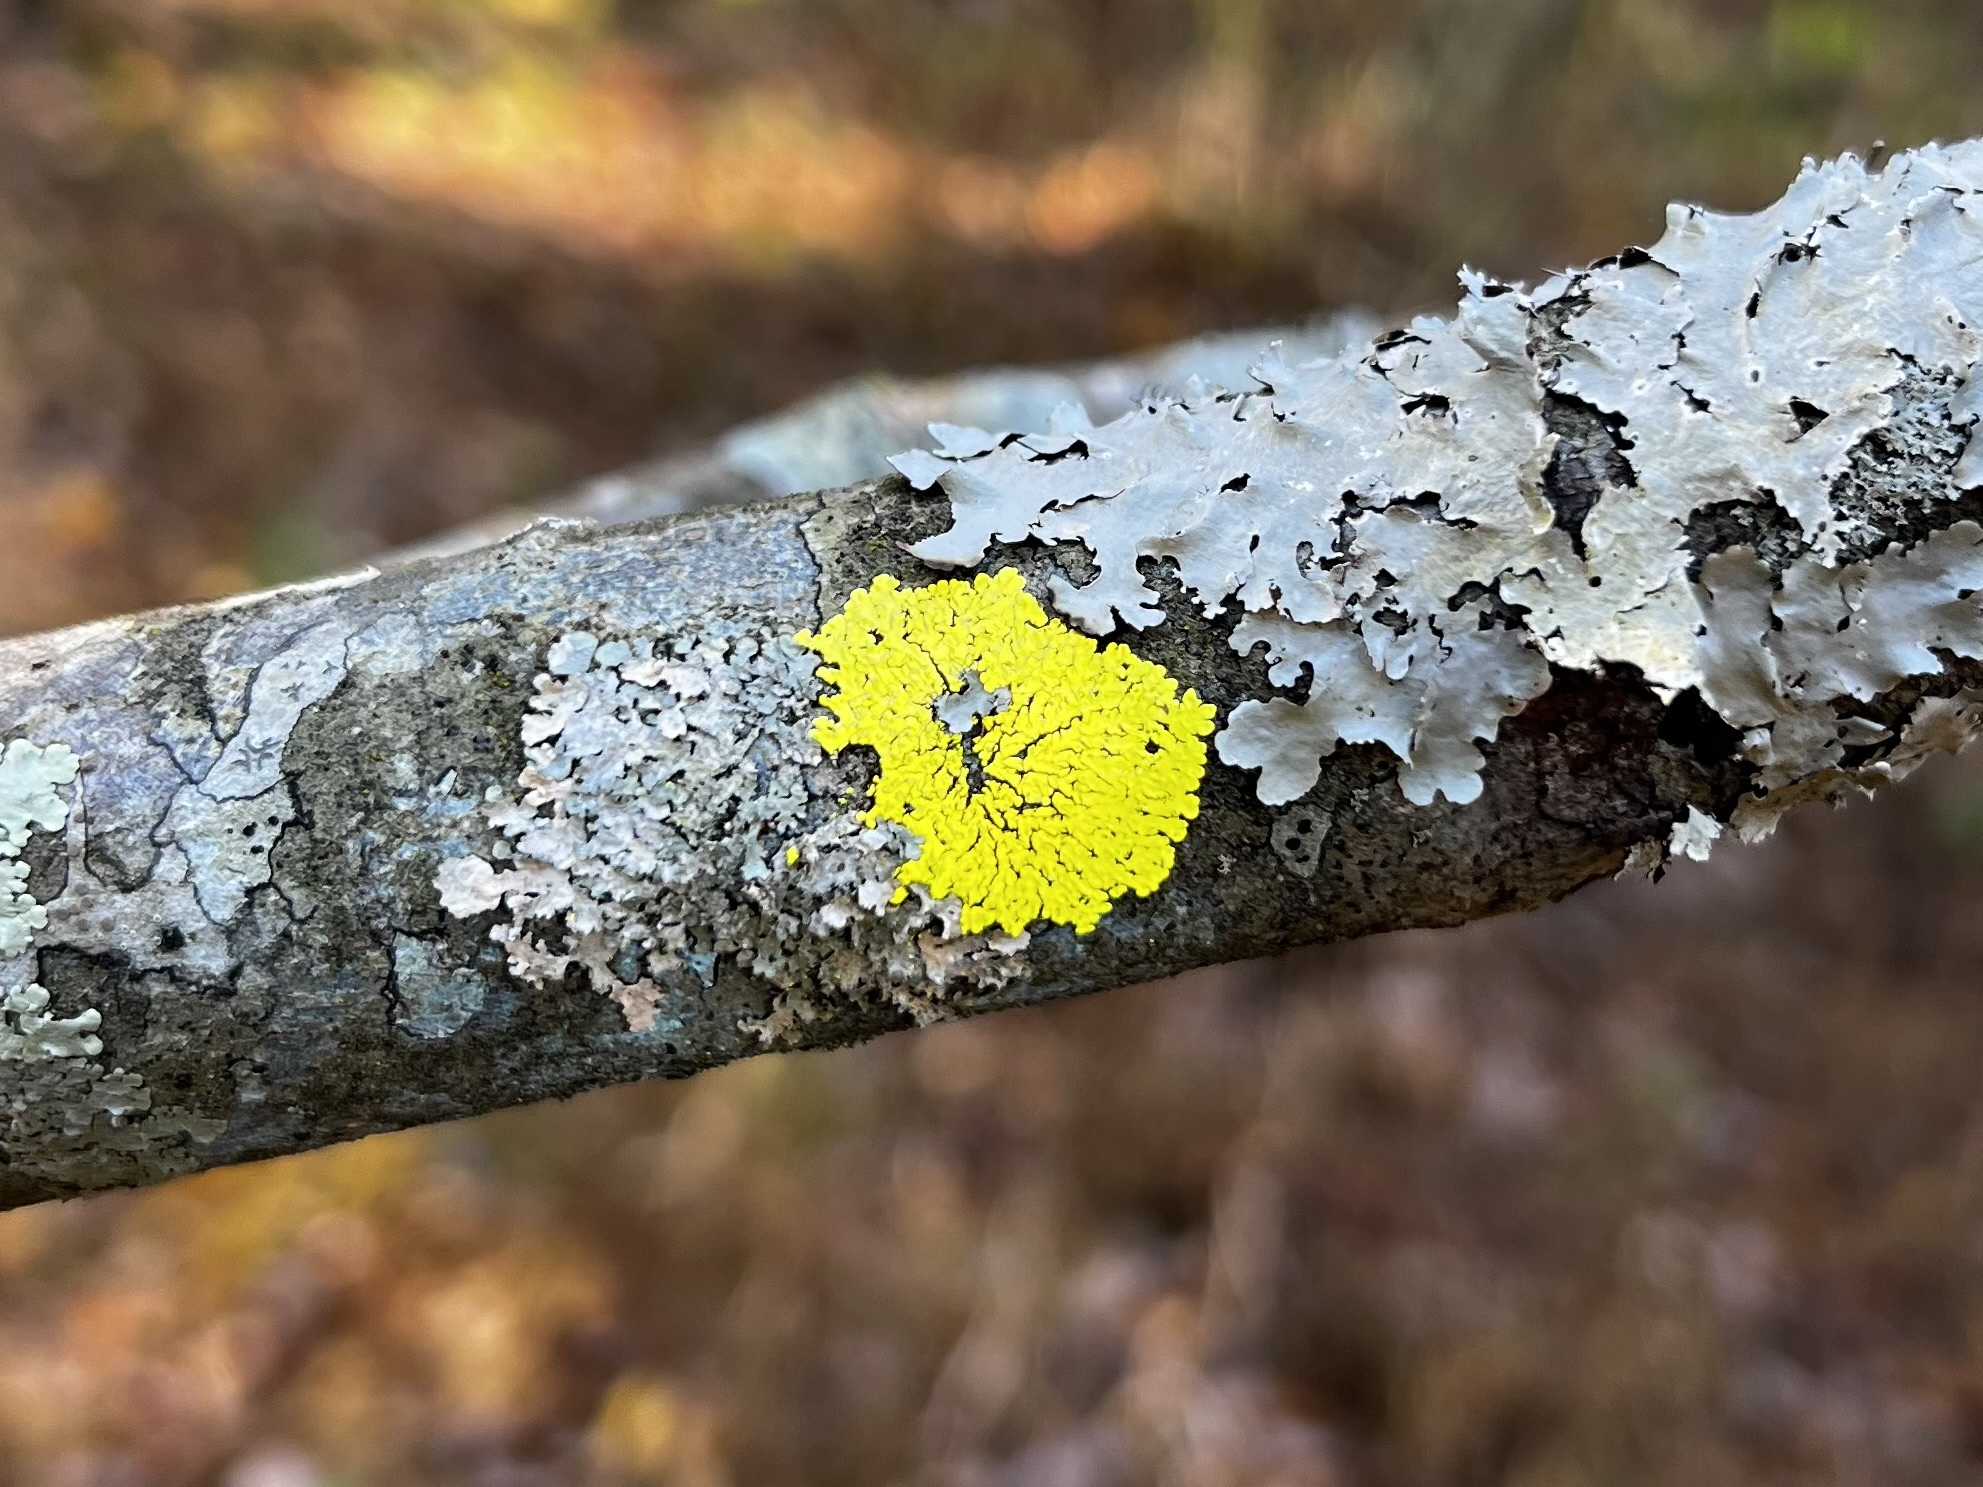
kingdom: Fungi
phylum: Ascomycota
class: Lecanoromycetes
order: Caliciales
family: Caliciaceae
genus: Pyxine
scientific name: Pyxine subcinerea
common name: Mustard lichen
